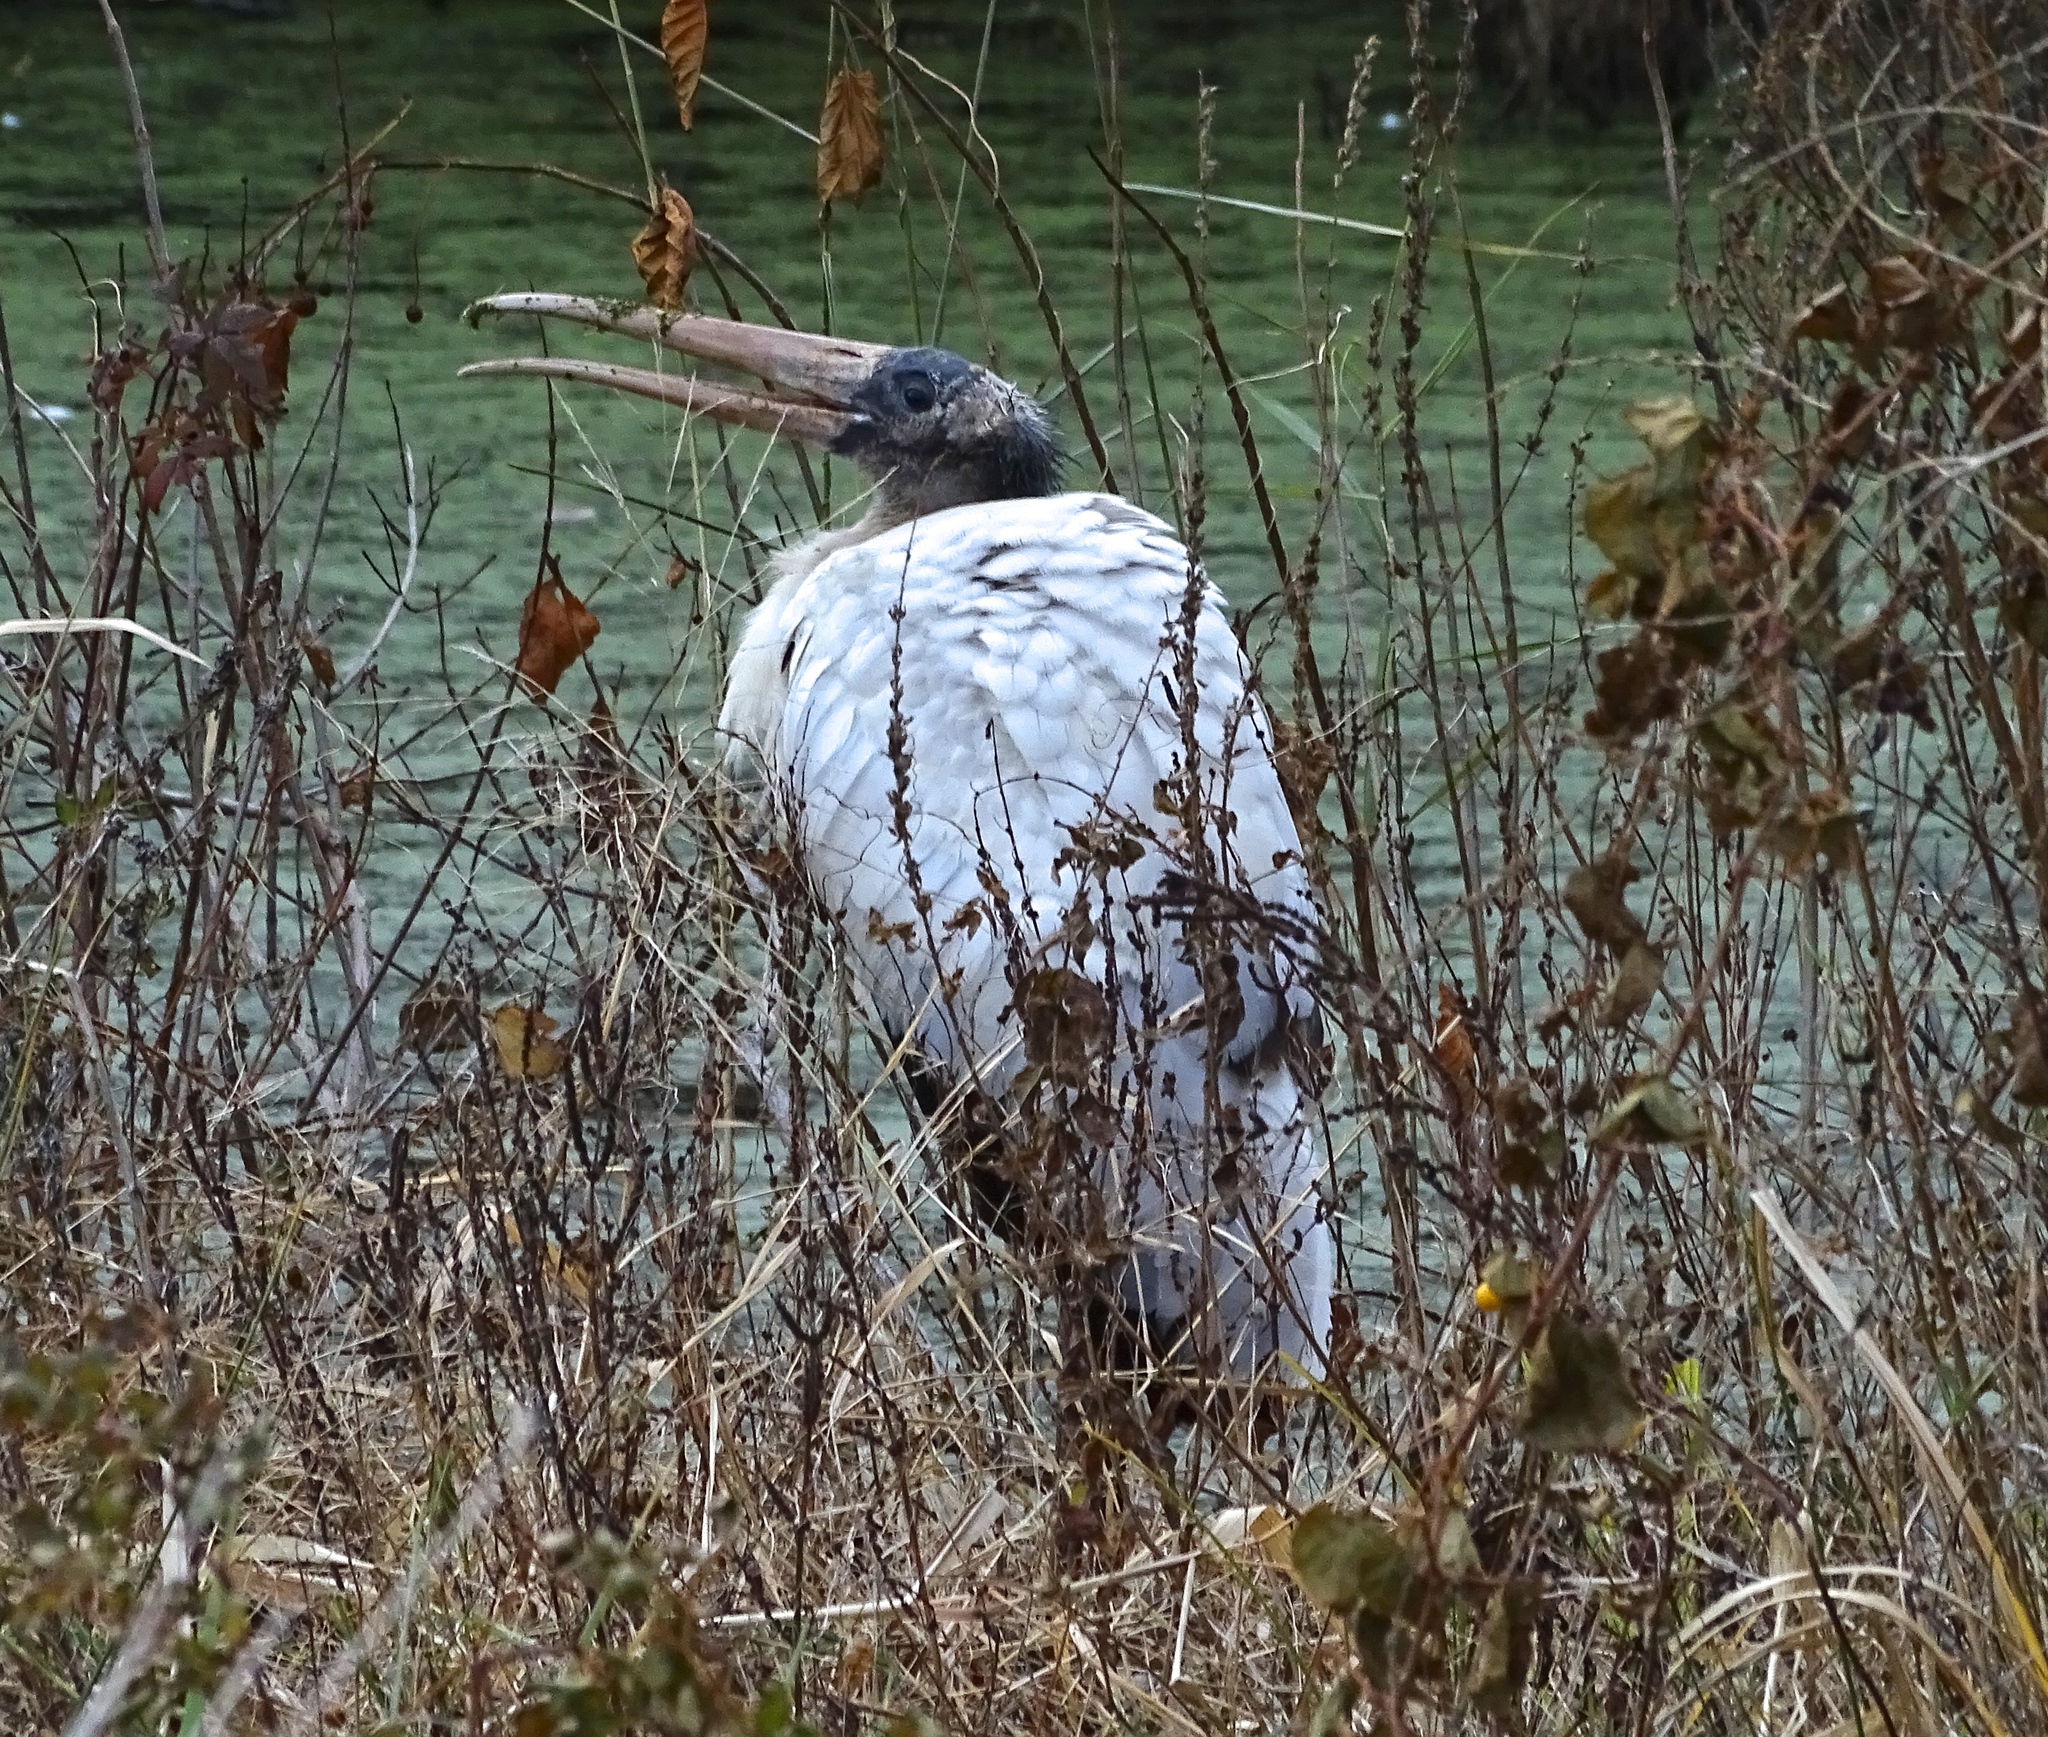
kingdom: Animalia
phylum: Chordata
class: Aves
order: Ciconiiformes
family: Ciconiidae
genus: Mycteria
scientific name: Mycteria americana
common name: Wood stork
